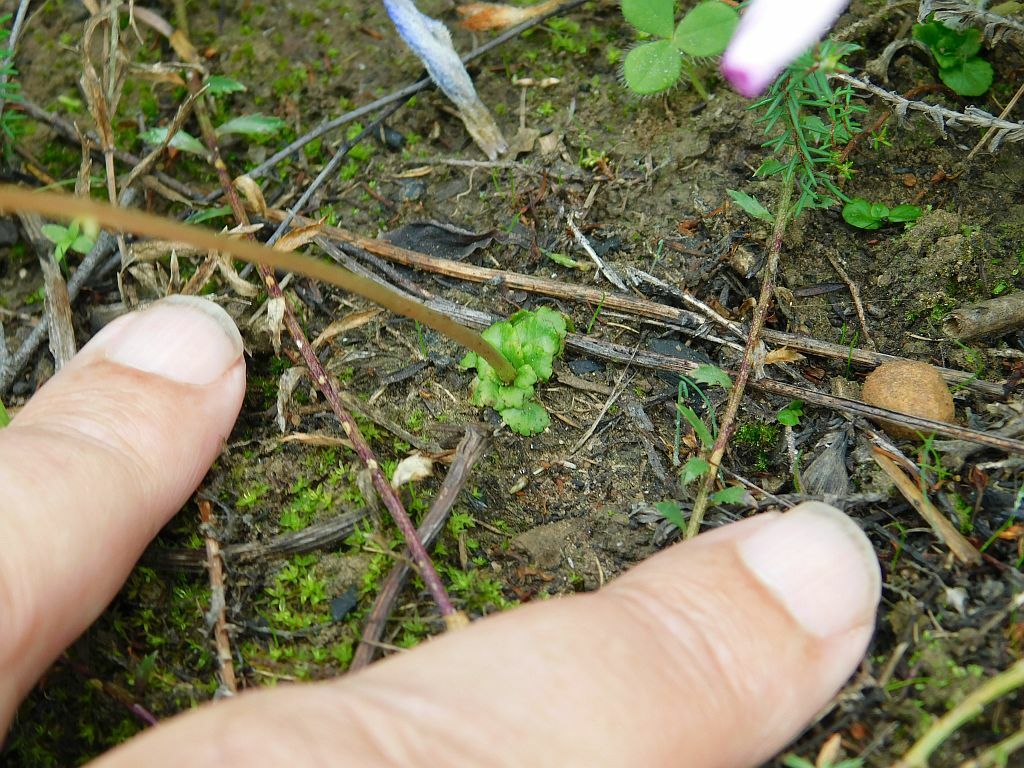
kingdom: Plantae
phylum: Tracheophyta
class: Magnoliopsida
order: Saxifragales
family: Crassulaceae
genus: Crassula
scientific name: Crassula capensis
